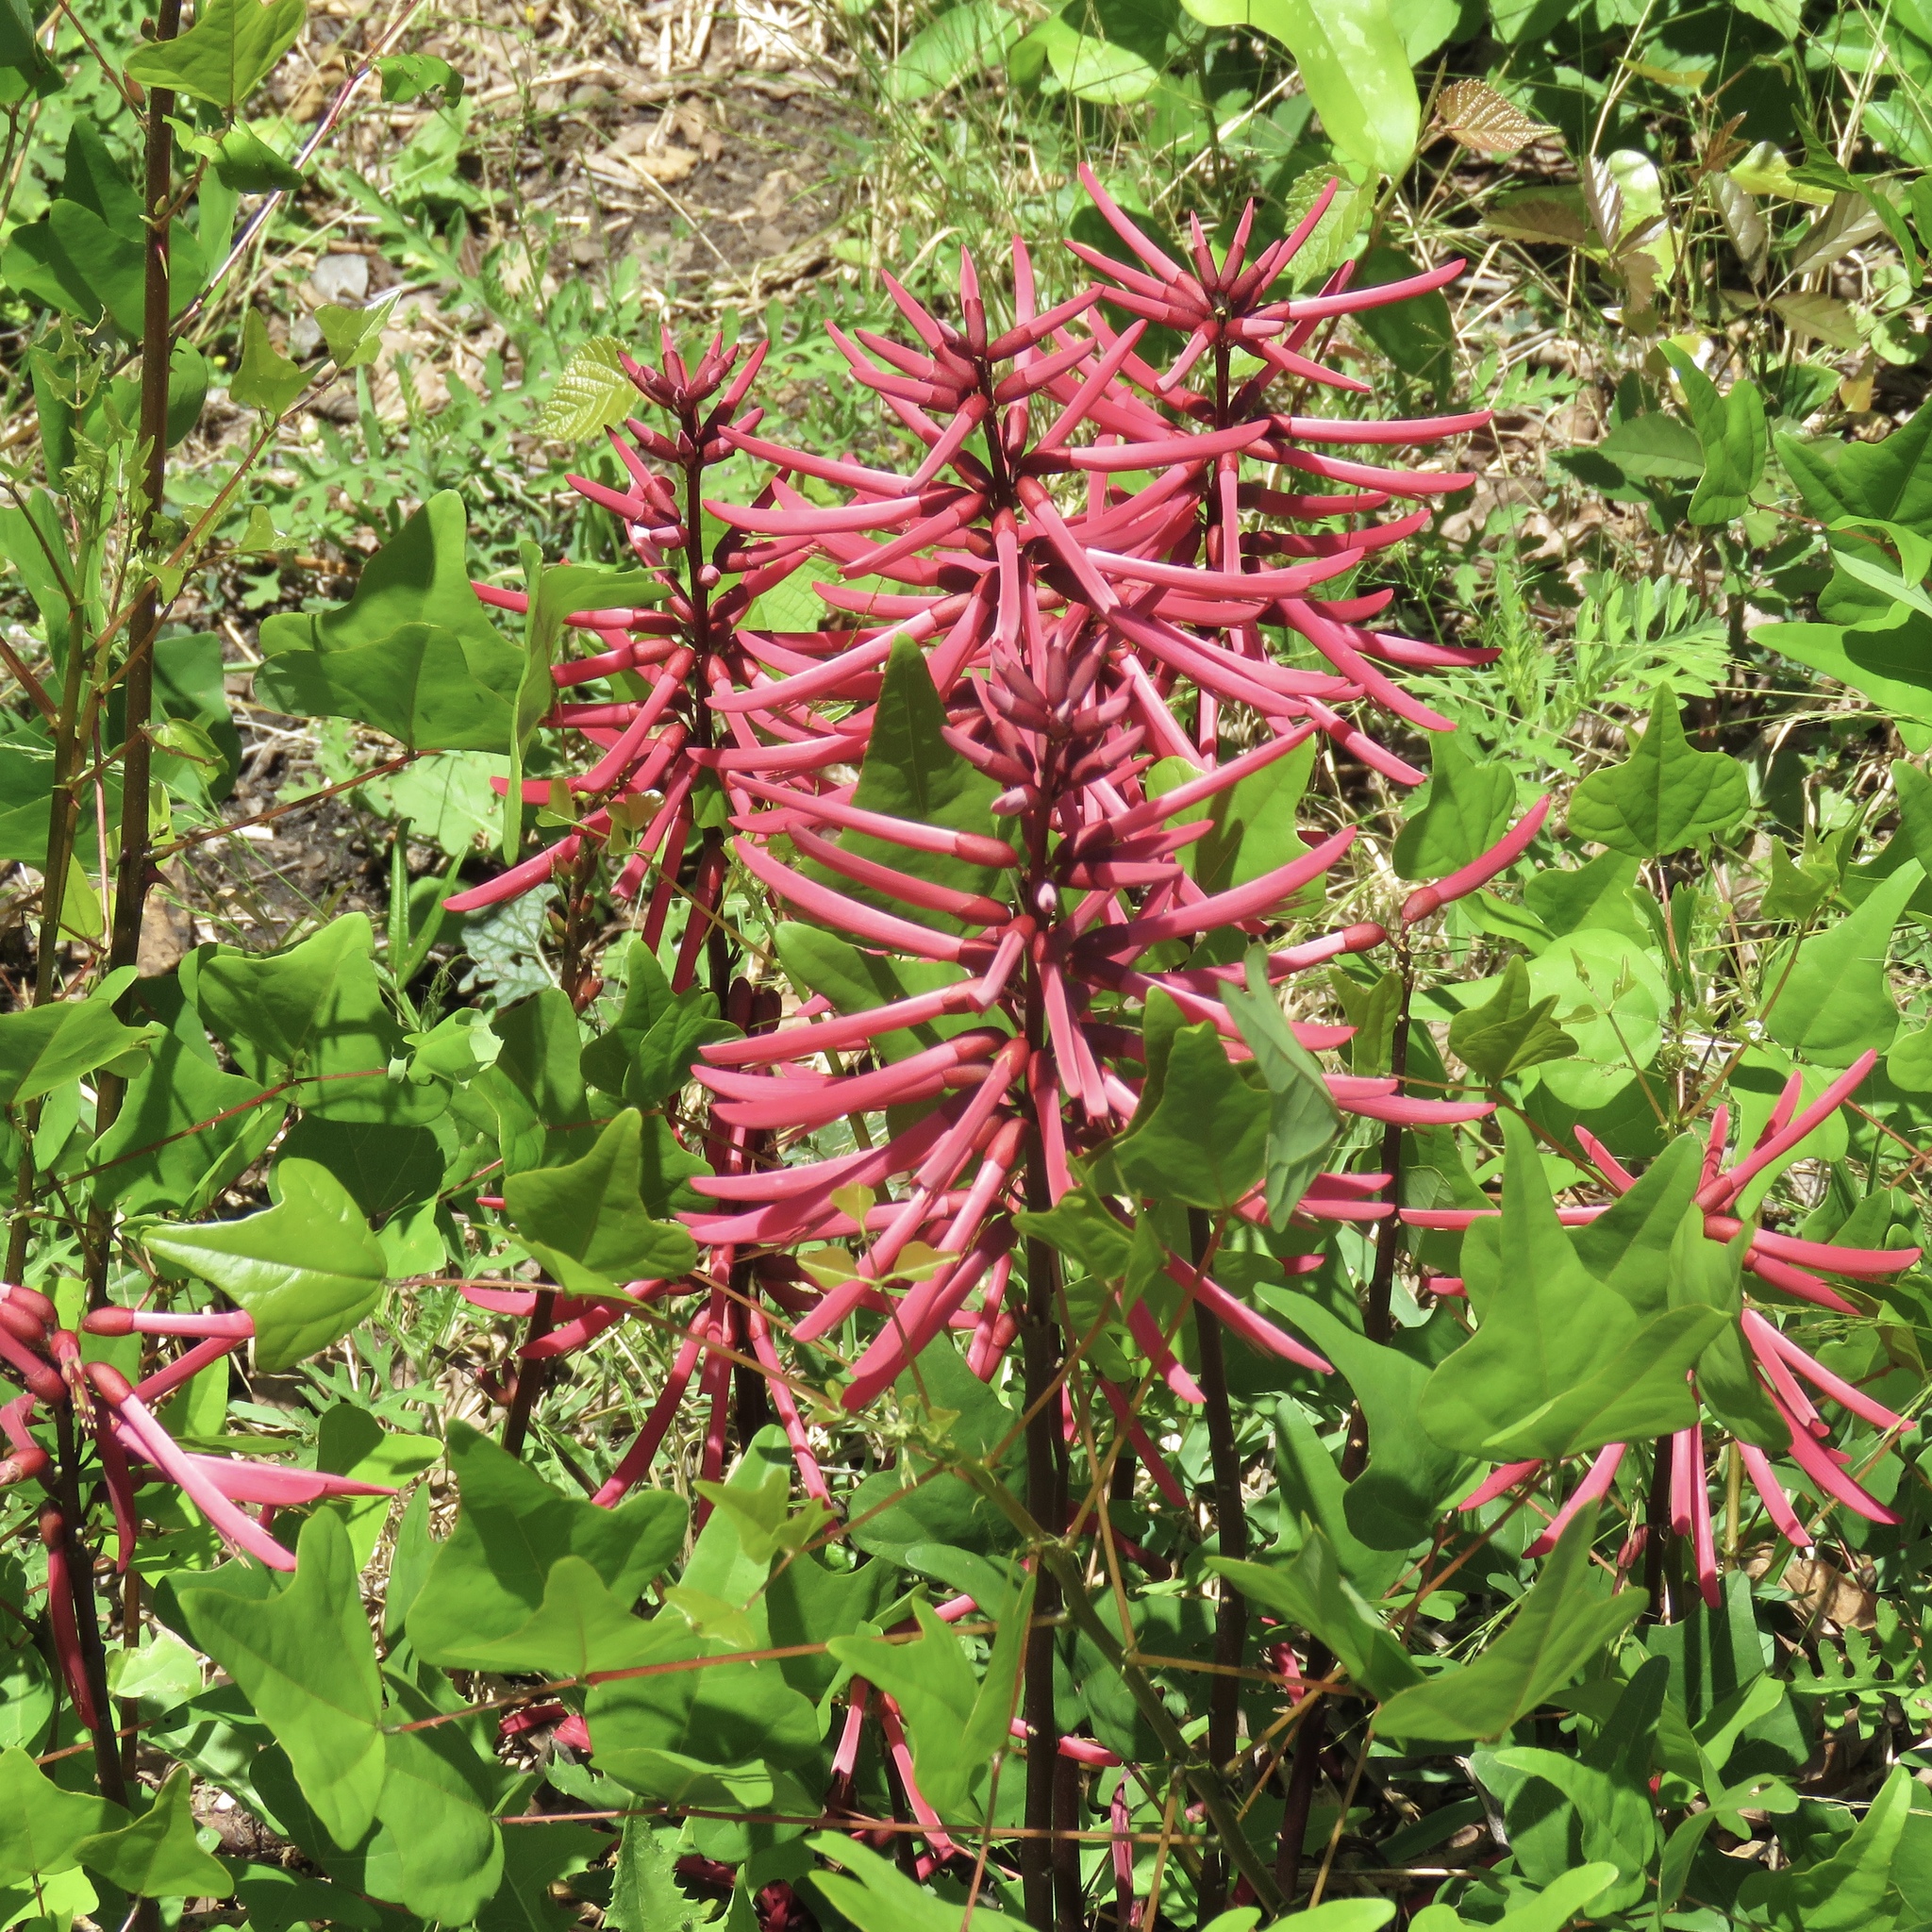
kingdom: Plantae
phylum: Tracheophyta
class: Magnoliopsida
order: Fabales
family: Fabaceae
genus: Erythrina
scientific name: Erythrina herbacea
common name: Coral-bean
